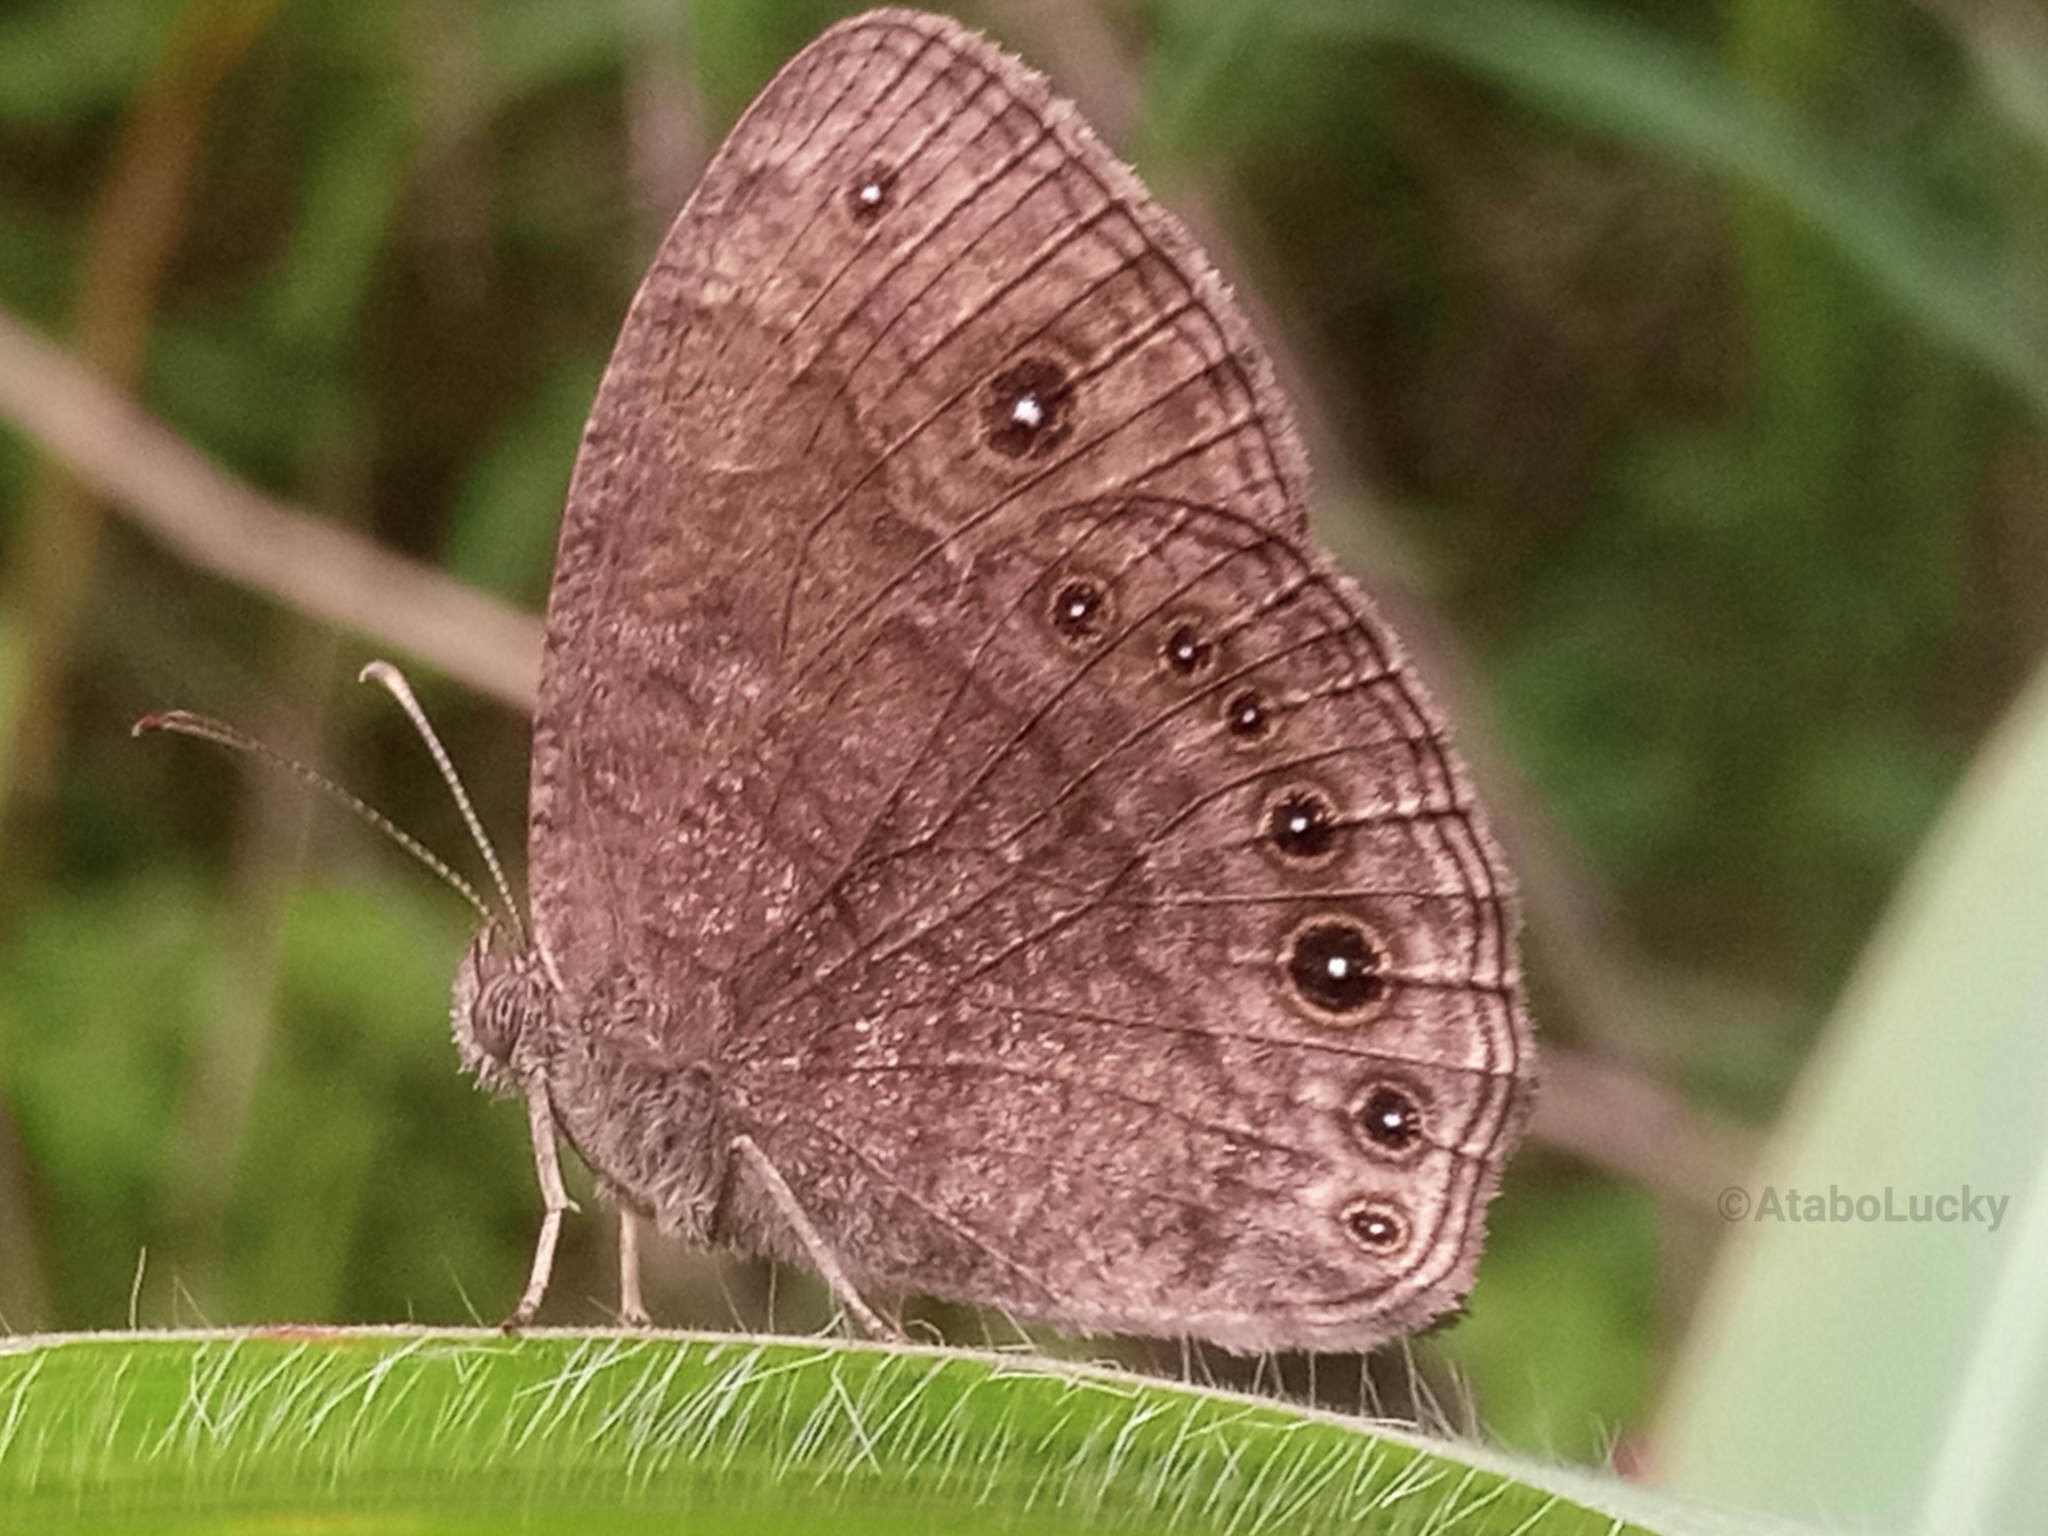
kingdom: Animalia
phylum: Arthropoda
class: Insecta
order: Lepidoptera
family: Nymphalidae
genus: Mycalesis
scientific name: Mycalesis vulgaris
